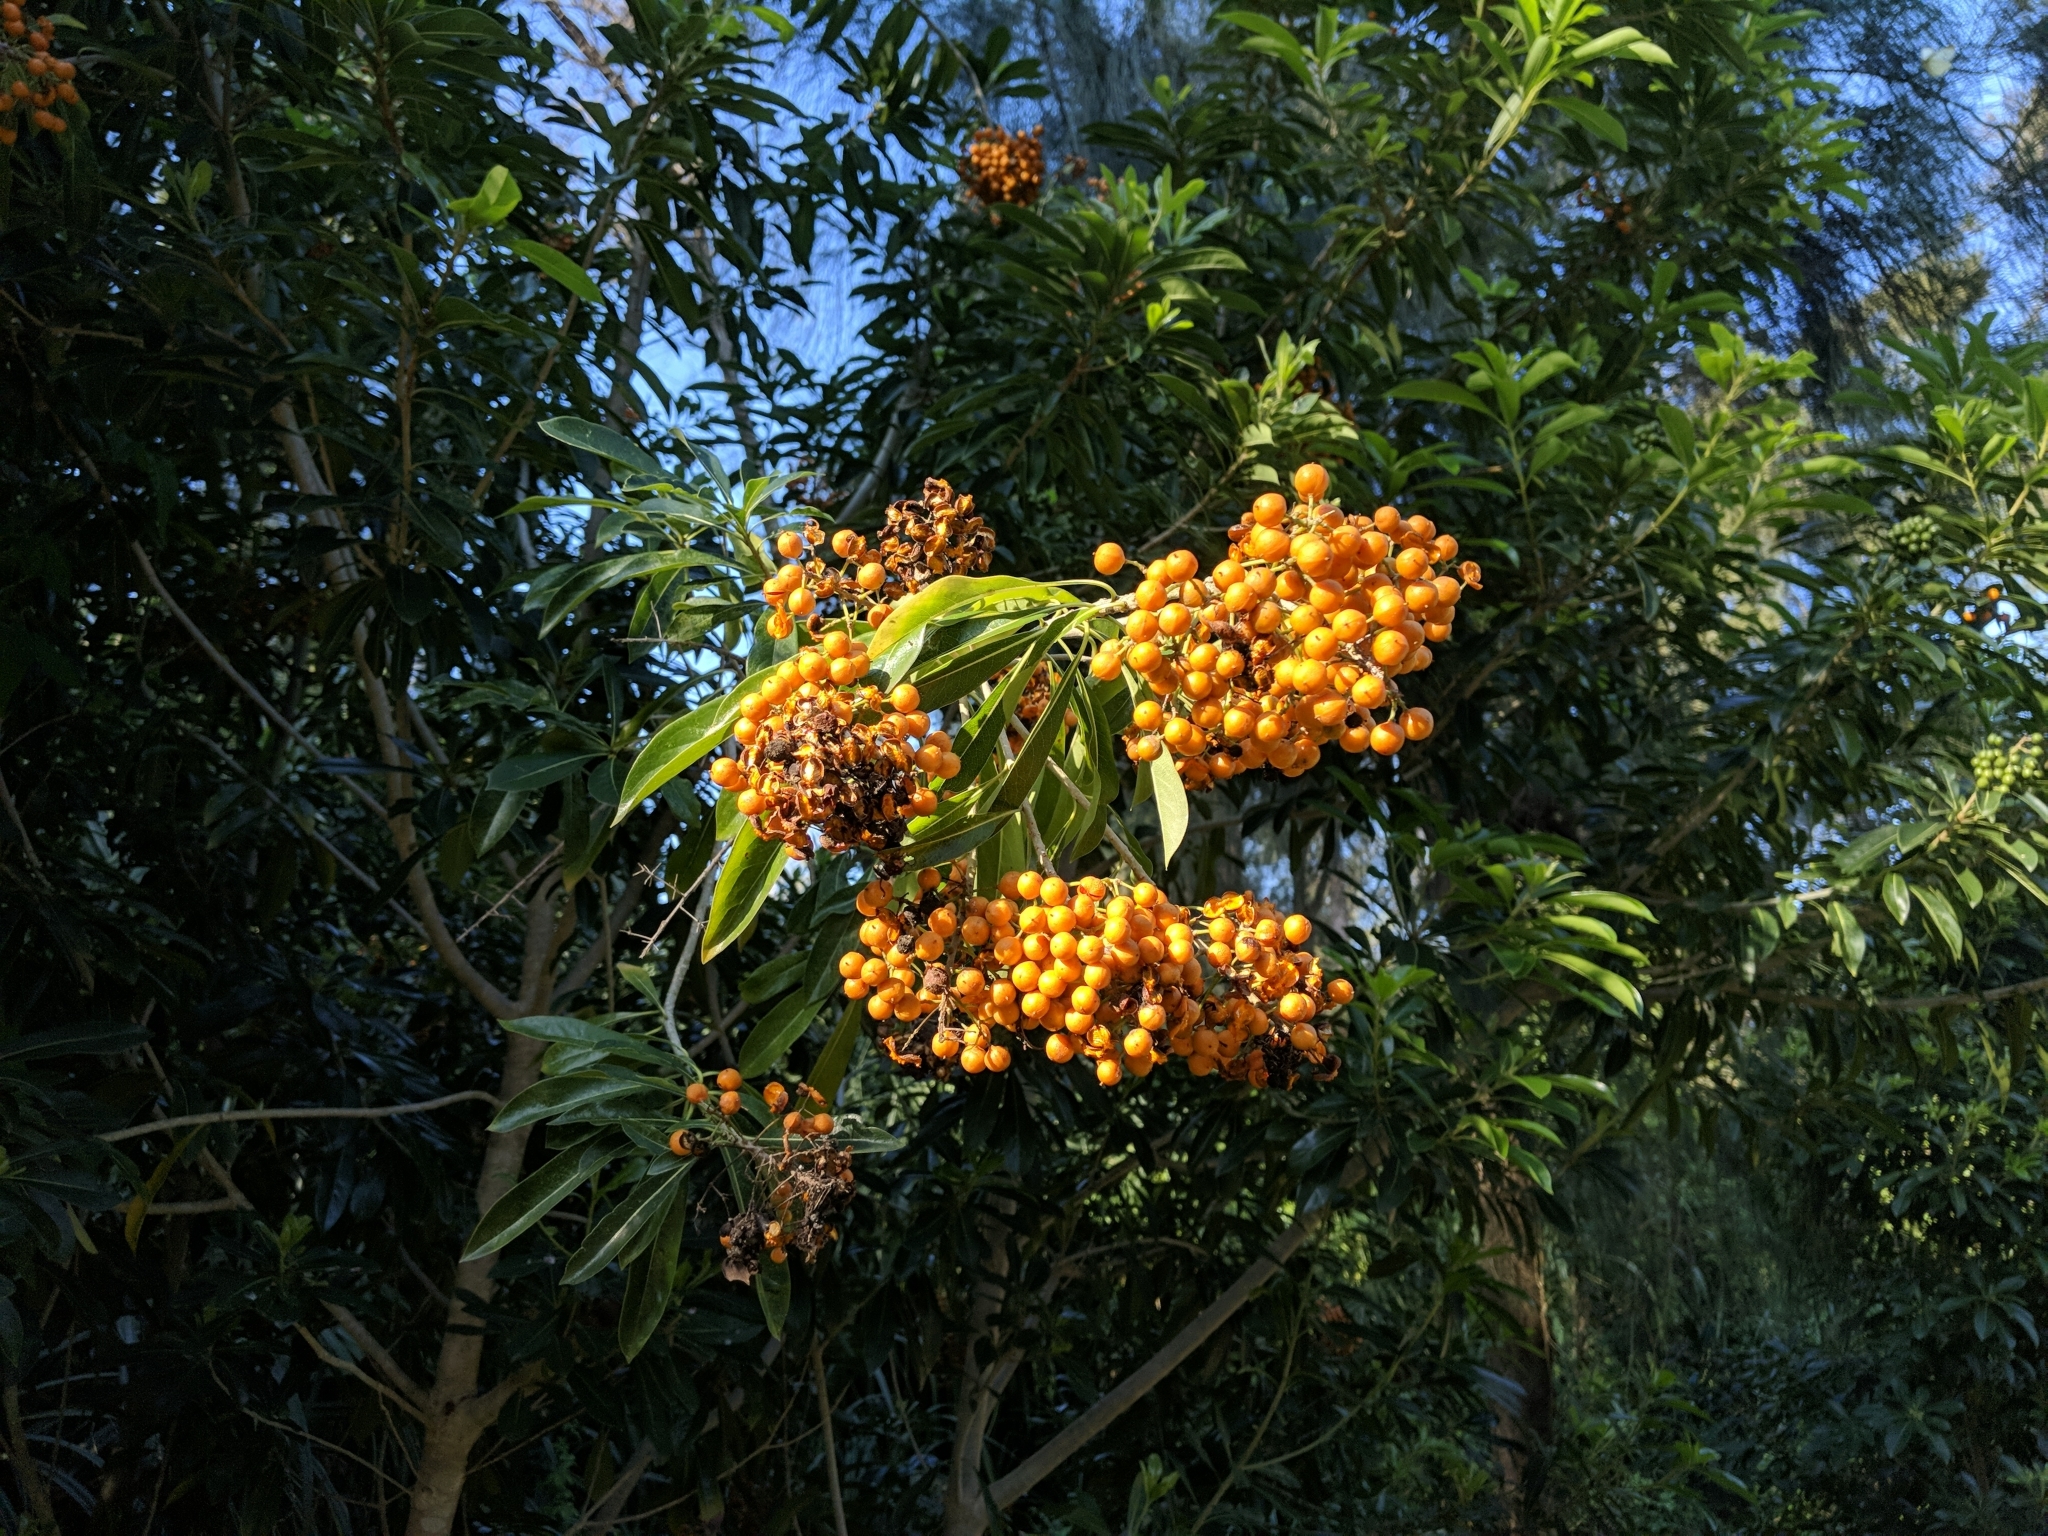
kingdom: Plantae
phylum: Tracheophyta
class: Magnoliopsida
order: Apiales
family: Pittosporaceae
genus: Pittosporum
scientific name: Pittosporum pentandrum
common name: Taiwanese cheesewood
